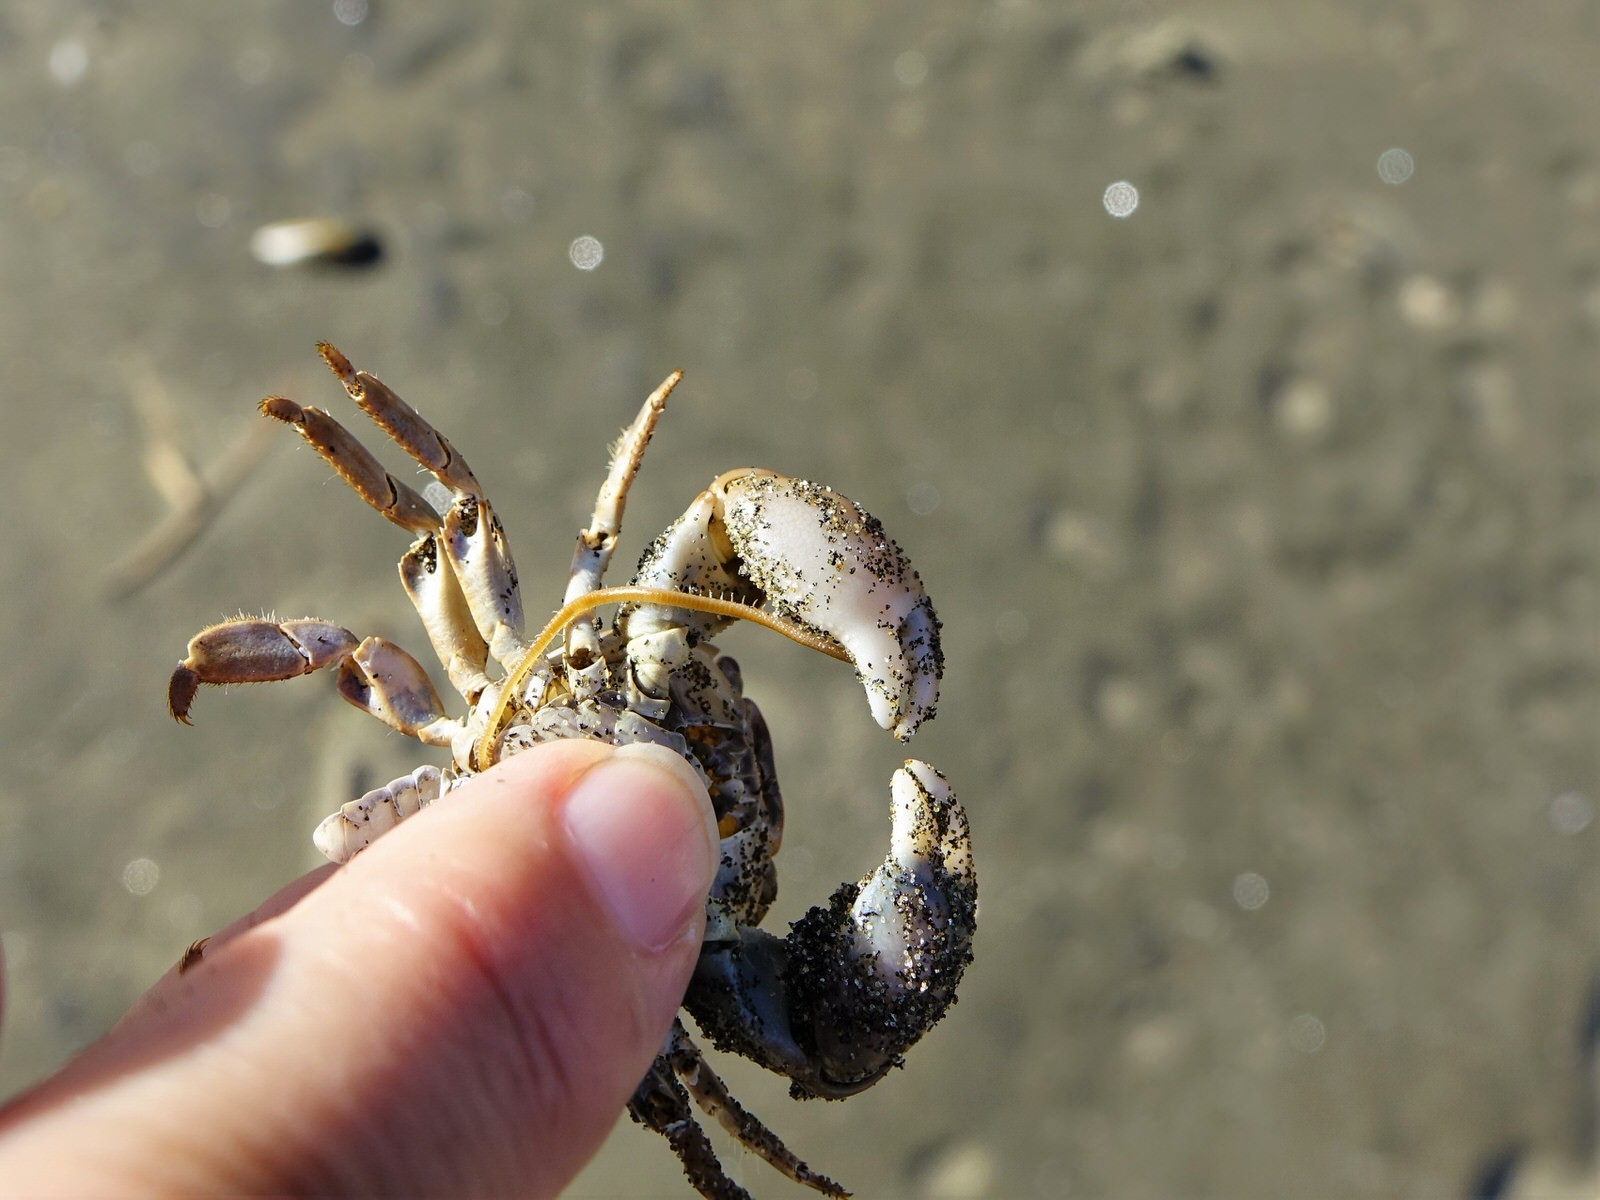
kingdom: Animalia
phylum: Arthropoda
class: Chilopoda
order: Geophilomorpha
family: Geophilidae
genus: Tuoba
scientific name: Tuoba xylophaga
